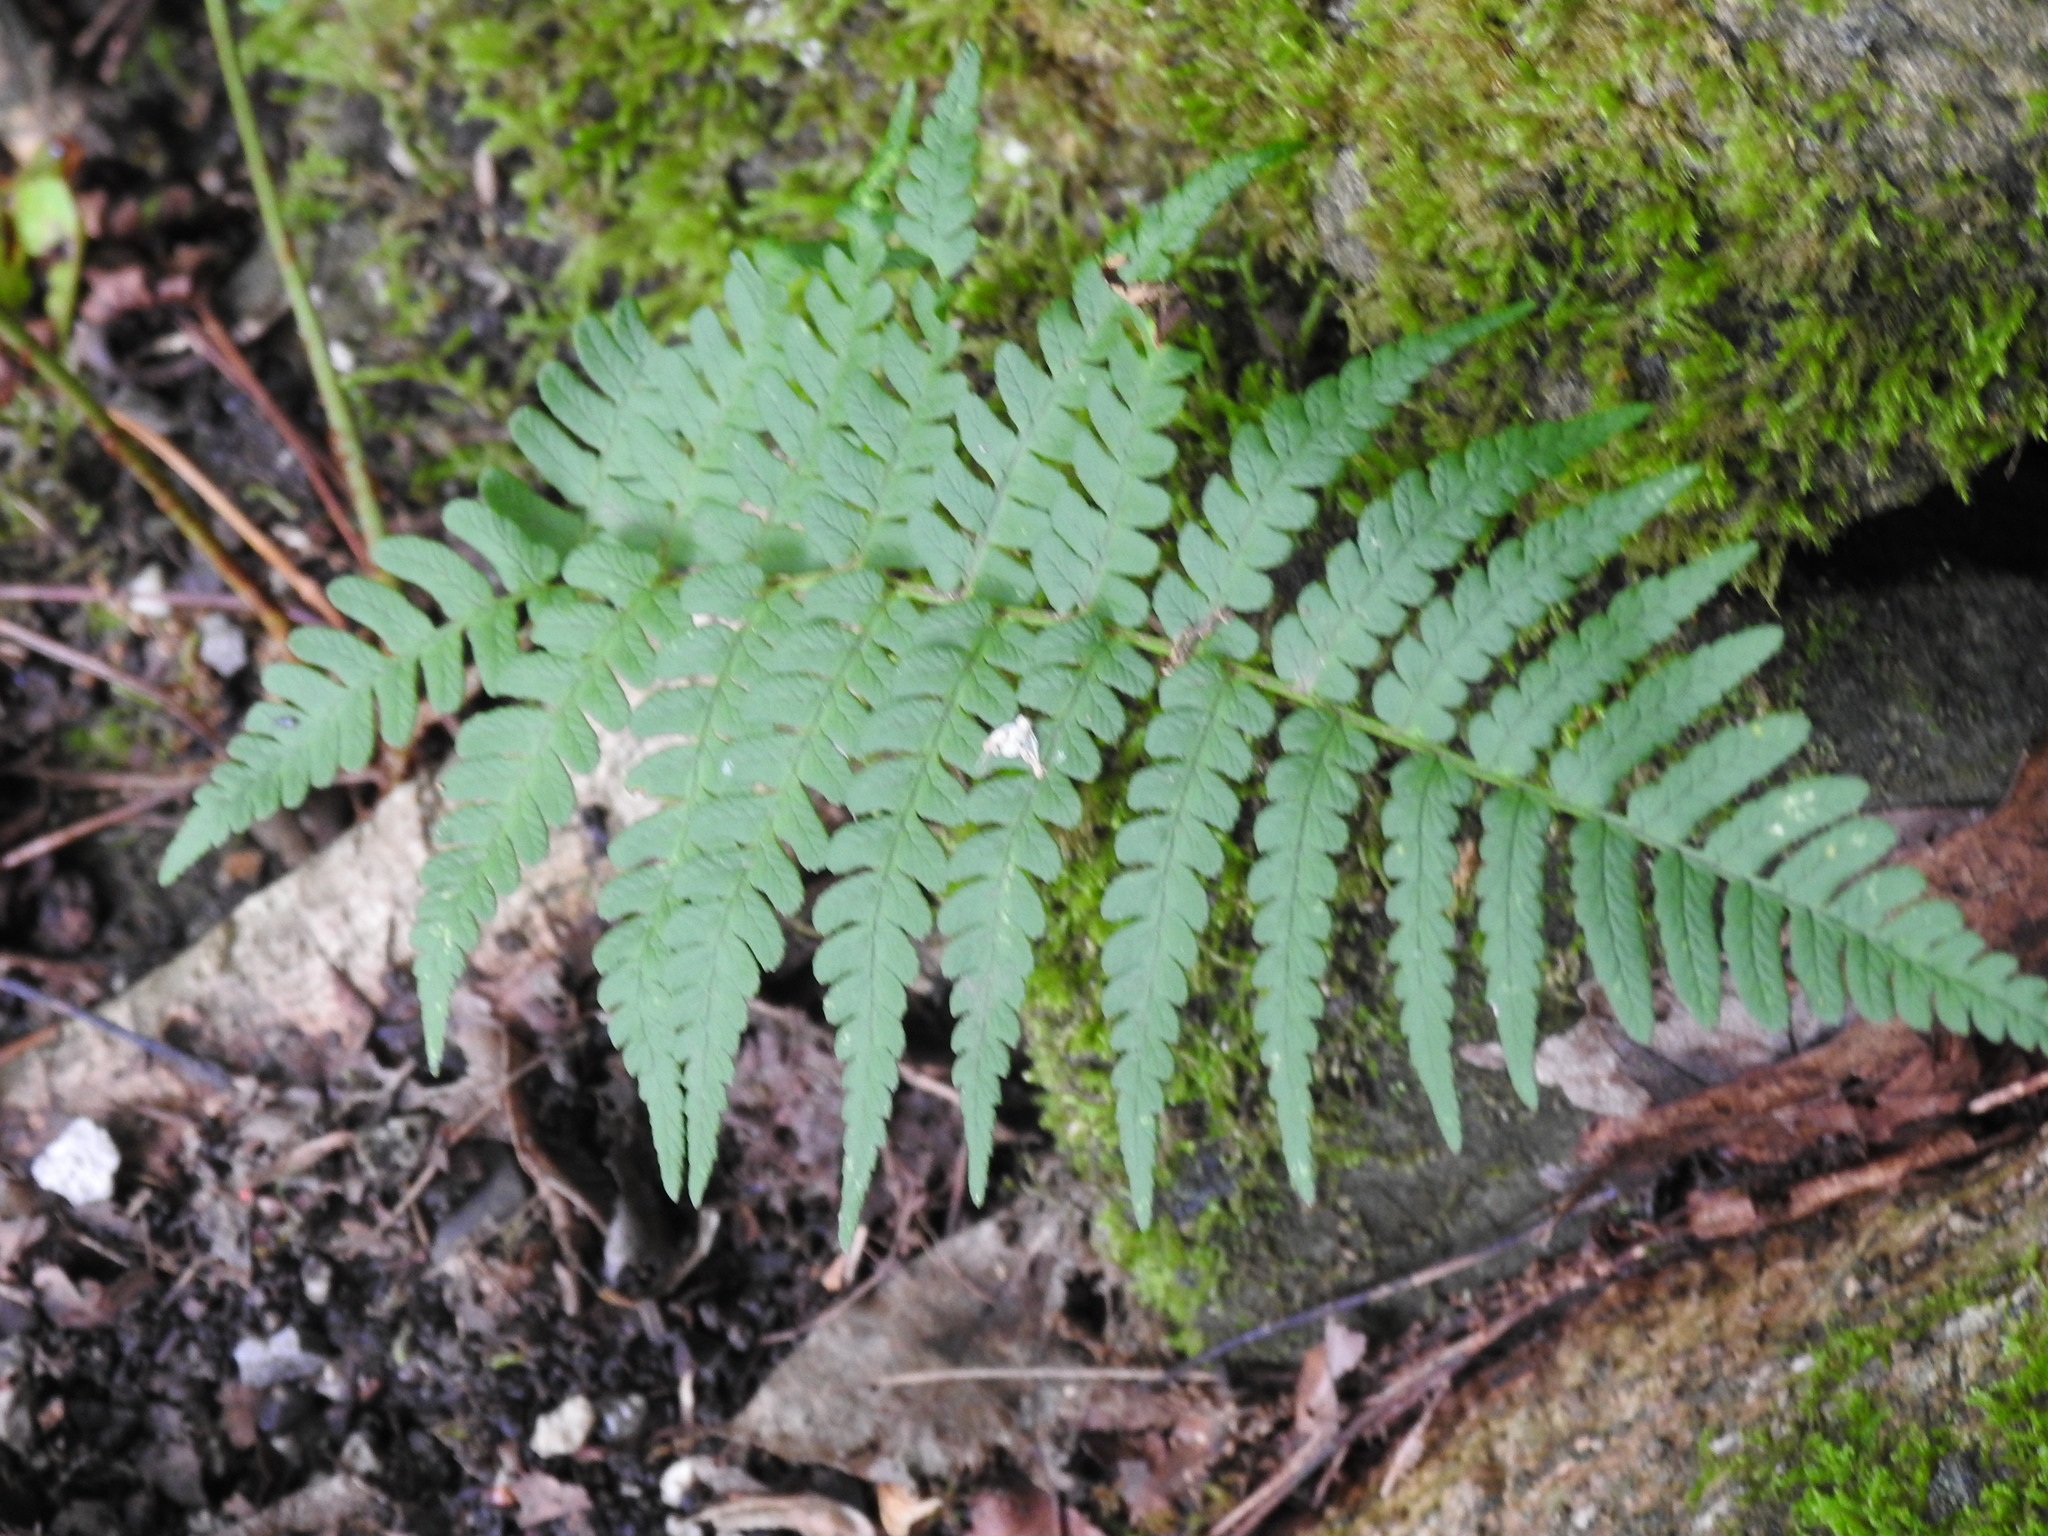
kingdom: Plantae
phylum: Tracheophyta
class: Polypodiopsida
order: Polypodiales
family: Dryopteridaceae
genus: Dryopteris
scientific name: Dryopteris marginalis
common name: Marginal wood fern
